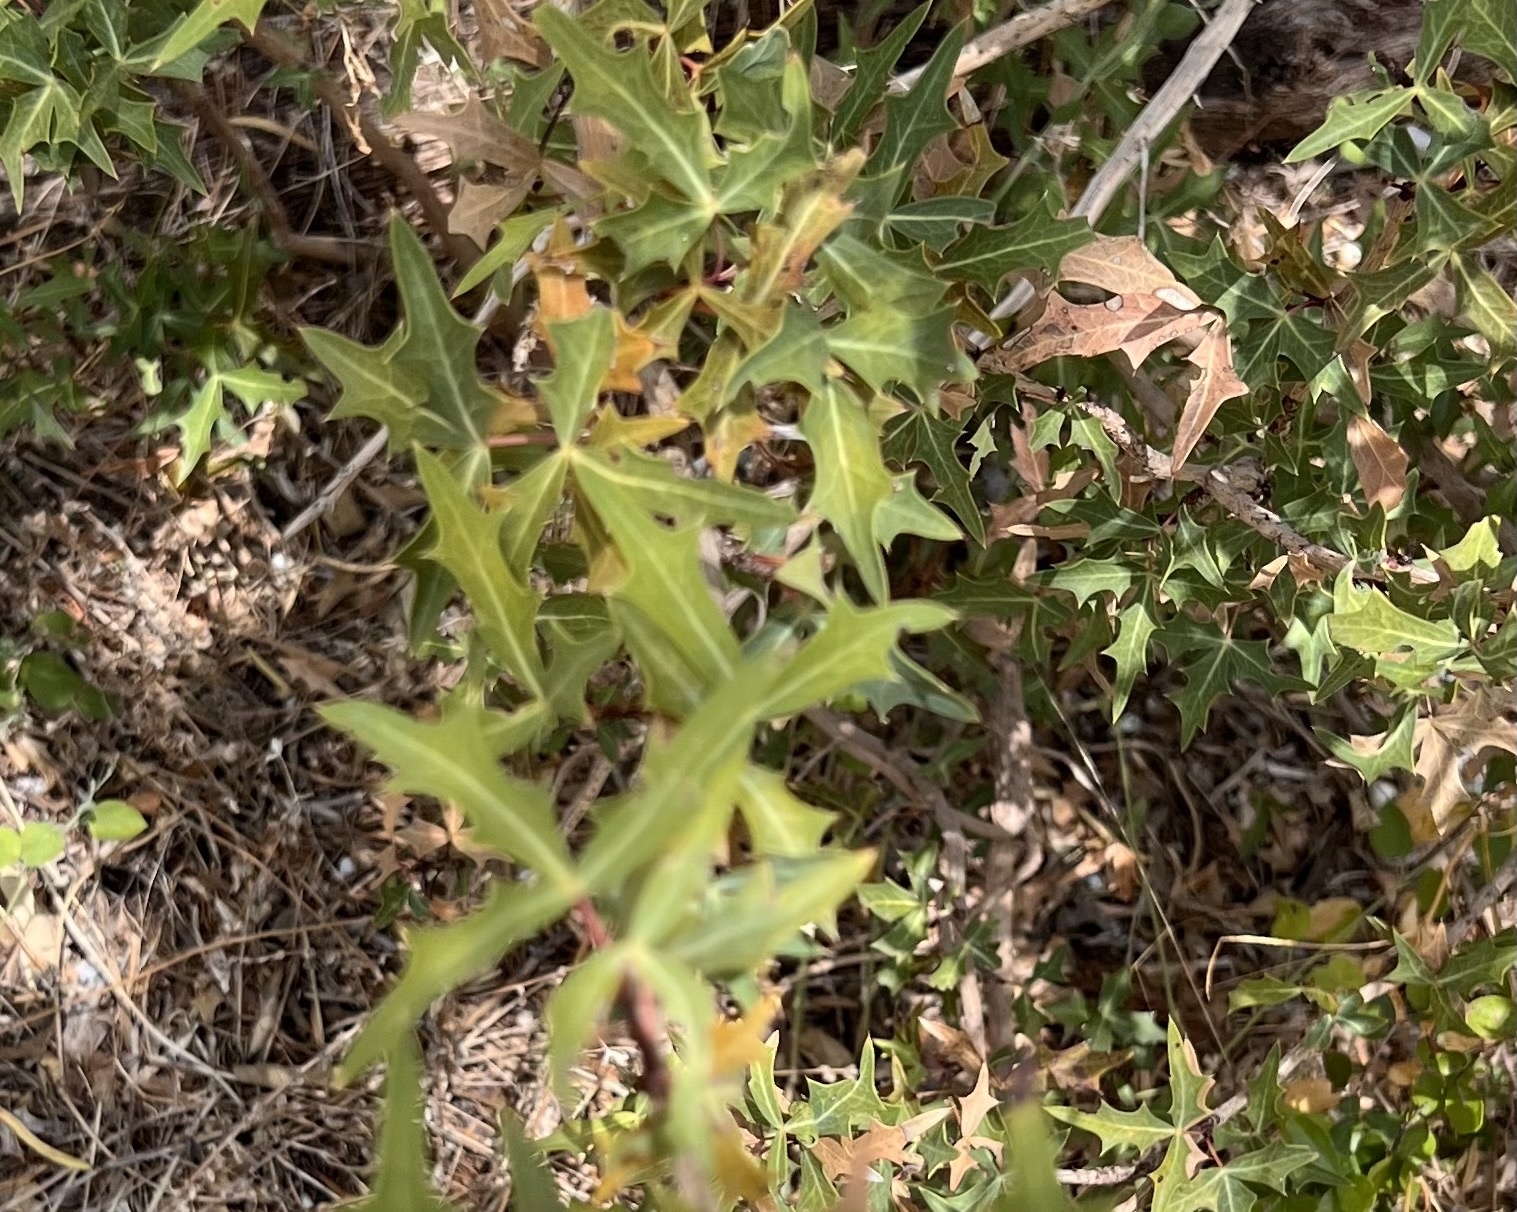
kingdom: Plantae
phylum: Tracheophyta
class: Magnoliopsida
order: Ranunculales
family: Berberidaceae
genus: Alloberberis
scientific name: Alloberberis trifoliolata
